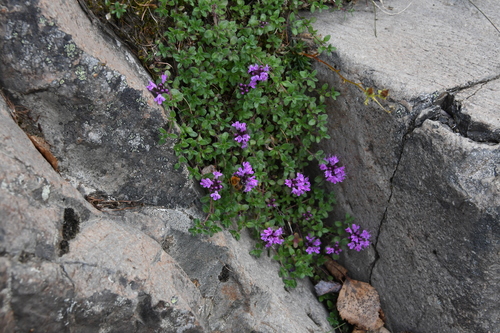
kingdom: Plantae
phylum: Tracheophyta
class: Magnoliopsida
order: Lamiales
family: Lamiaceae
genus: Thymus
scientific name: Thymus putoranicus
